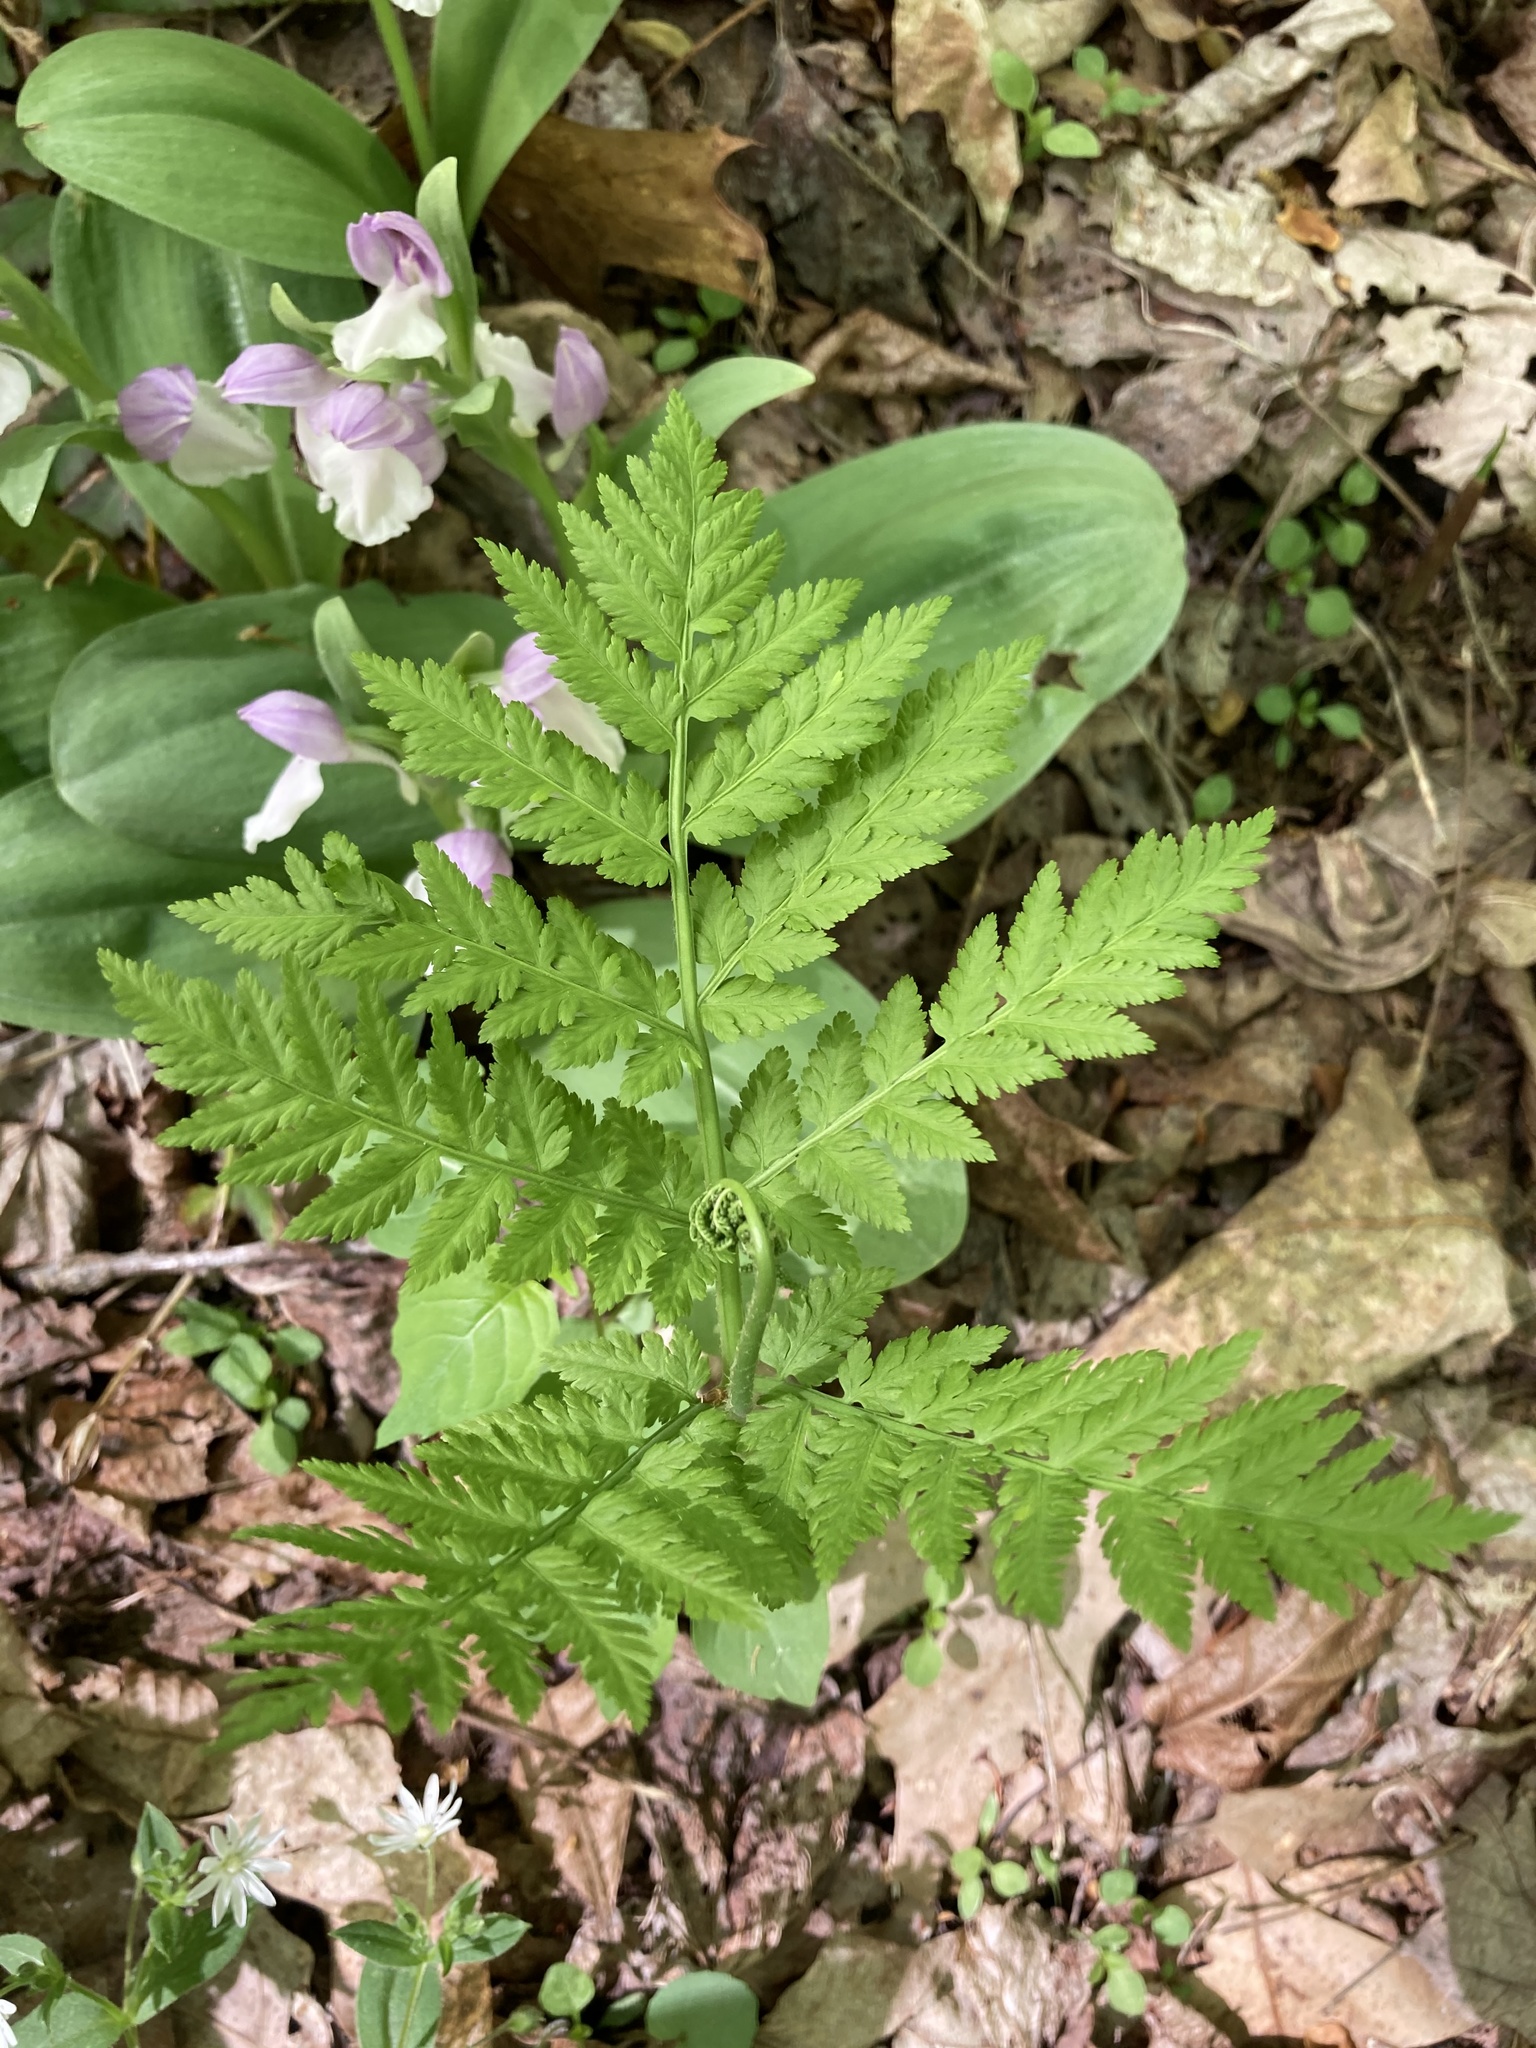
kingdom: Plantae
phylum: Tracheophyta
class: Polypodiopsida
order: Ophioglossales
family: Ophioglossaceae
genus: Botrypus
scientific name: Botrypus virginianus
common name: Common grapefern
